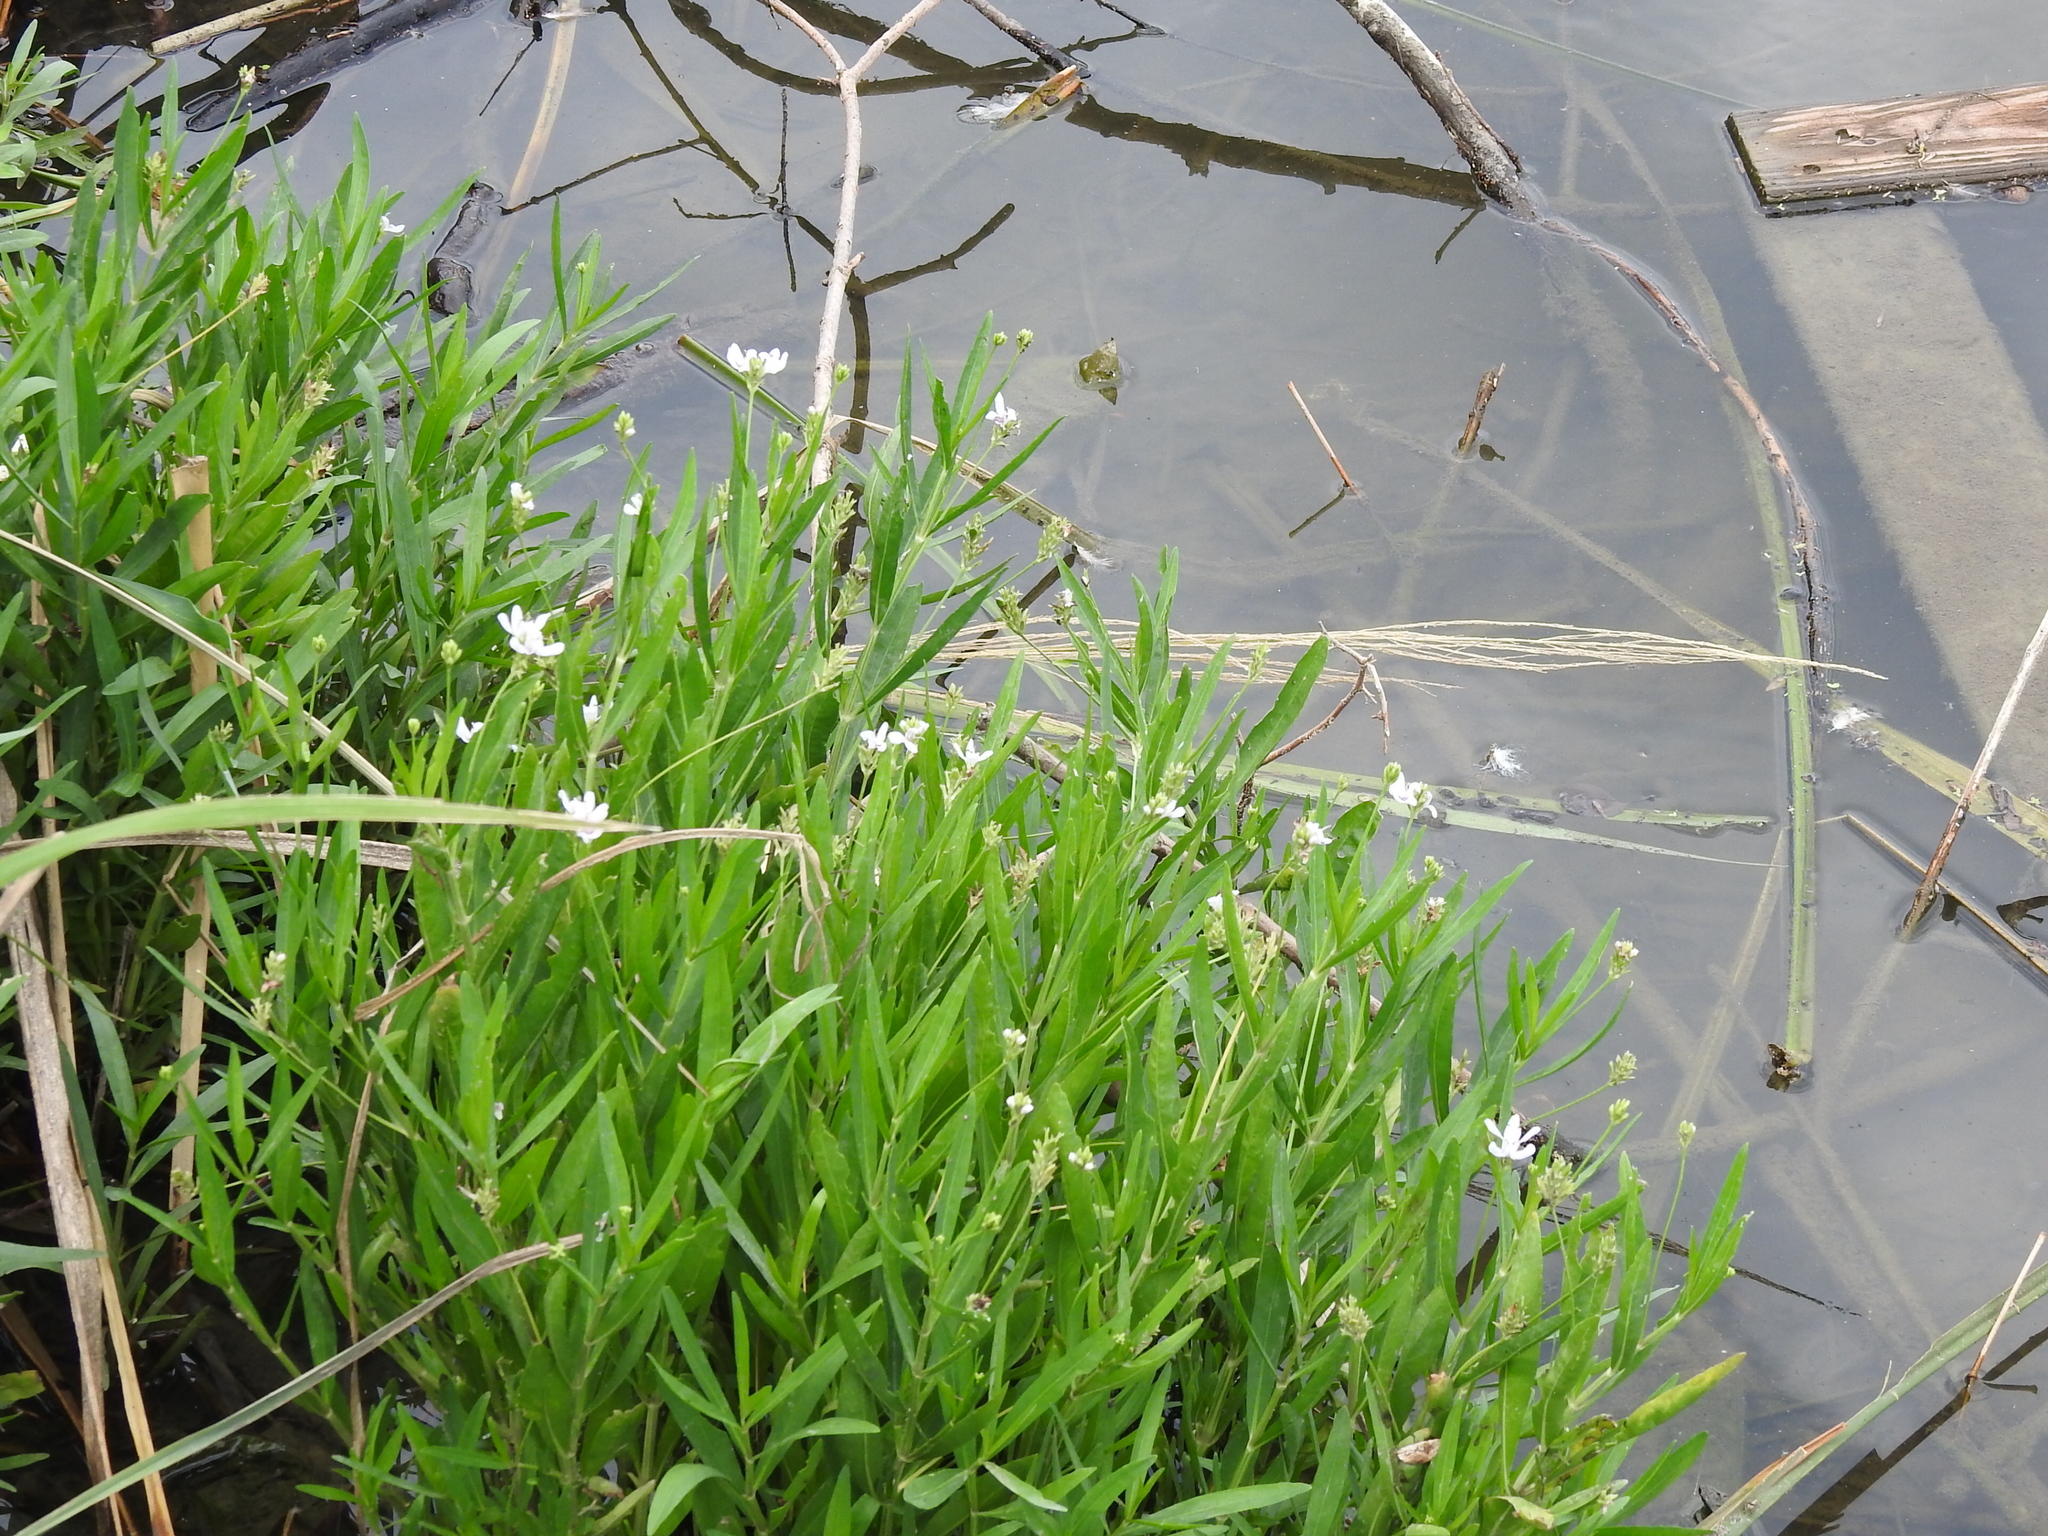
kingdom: Plantae
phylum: Tracheophyta
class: Magnoliopsida
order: Lamiales
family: Acanthaceae
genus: Dianthera
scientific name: Dianthera americana
